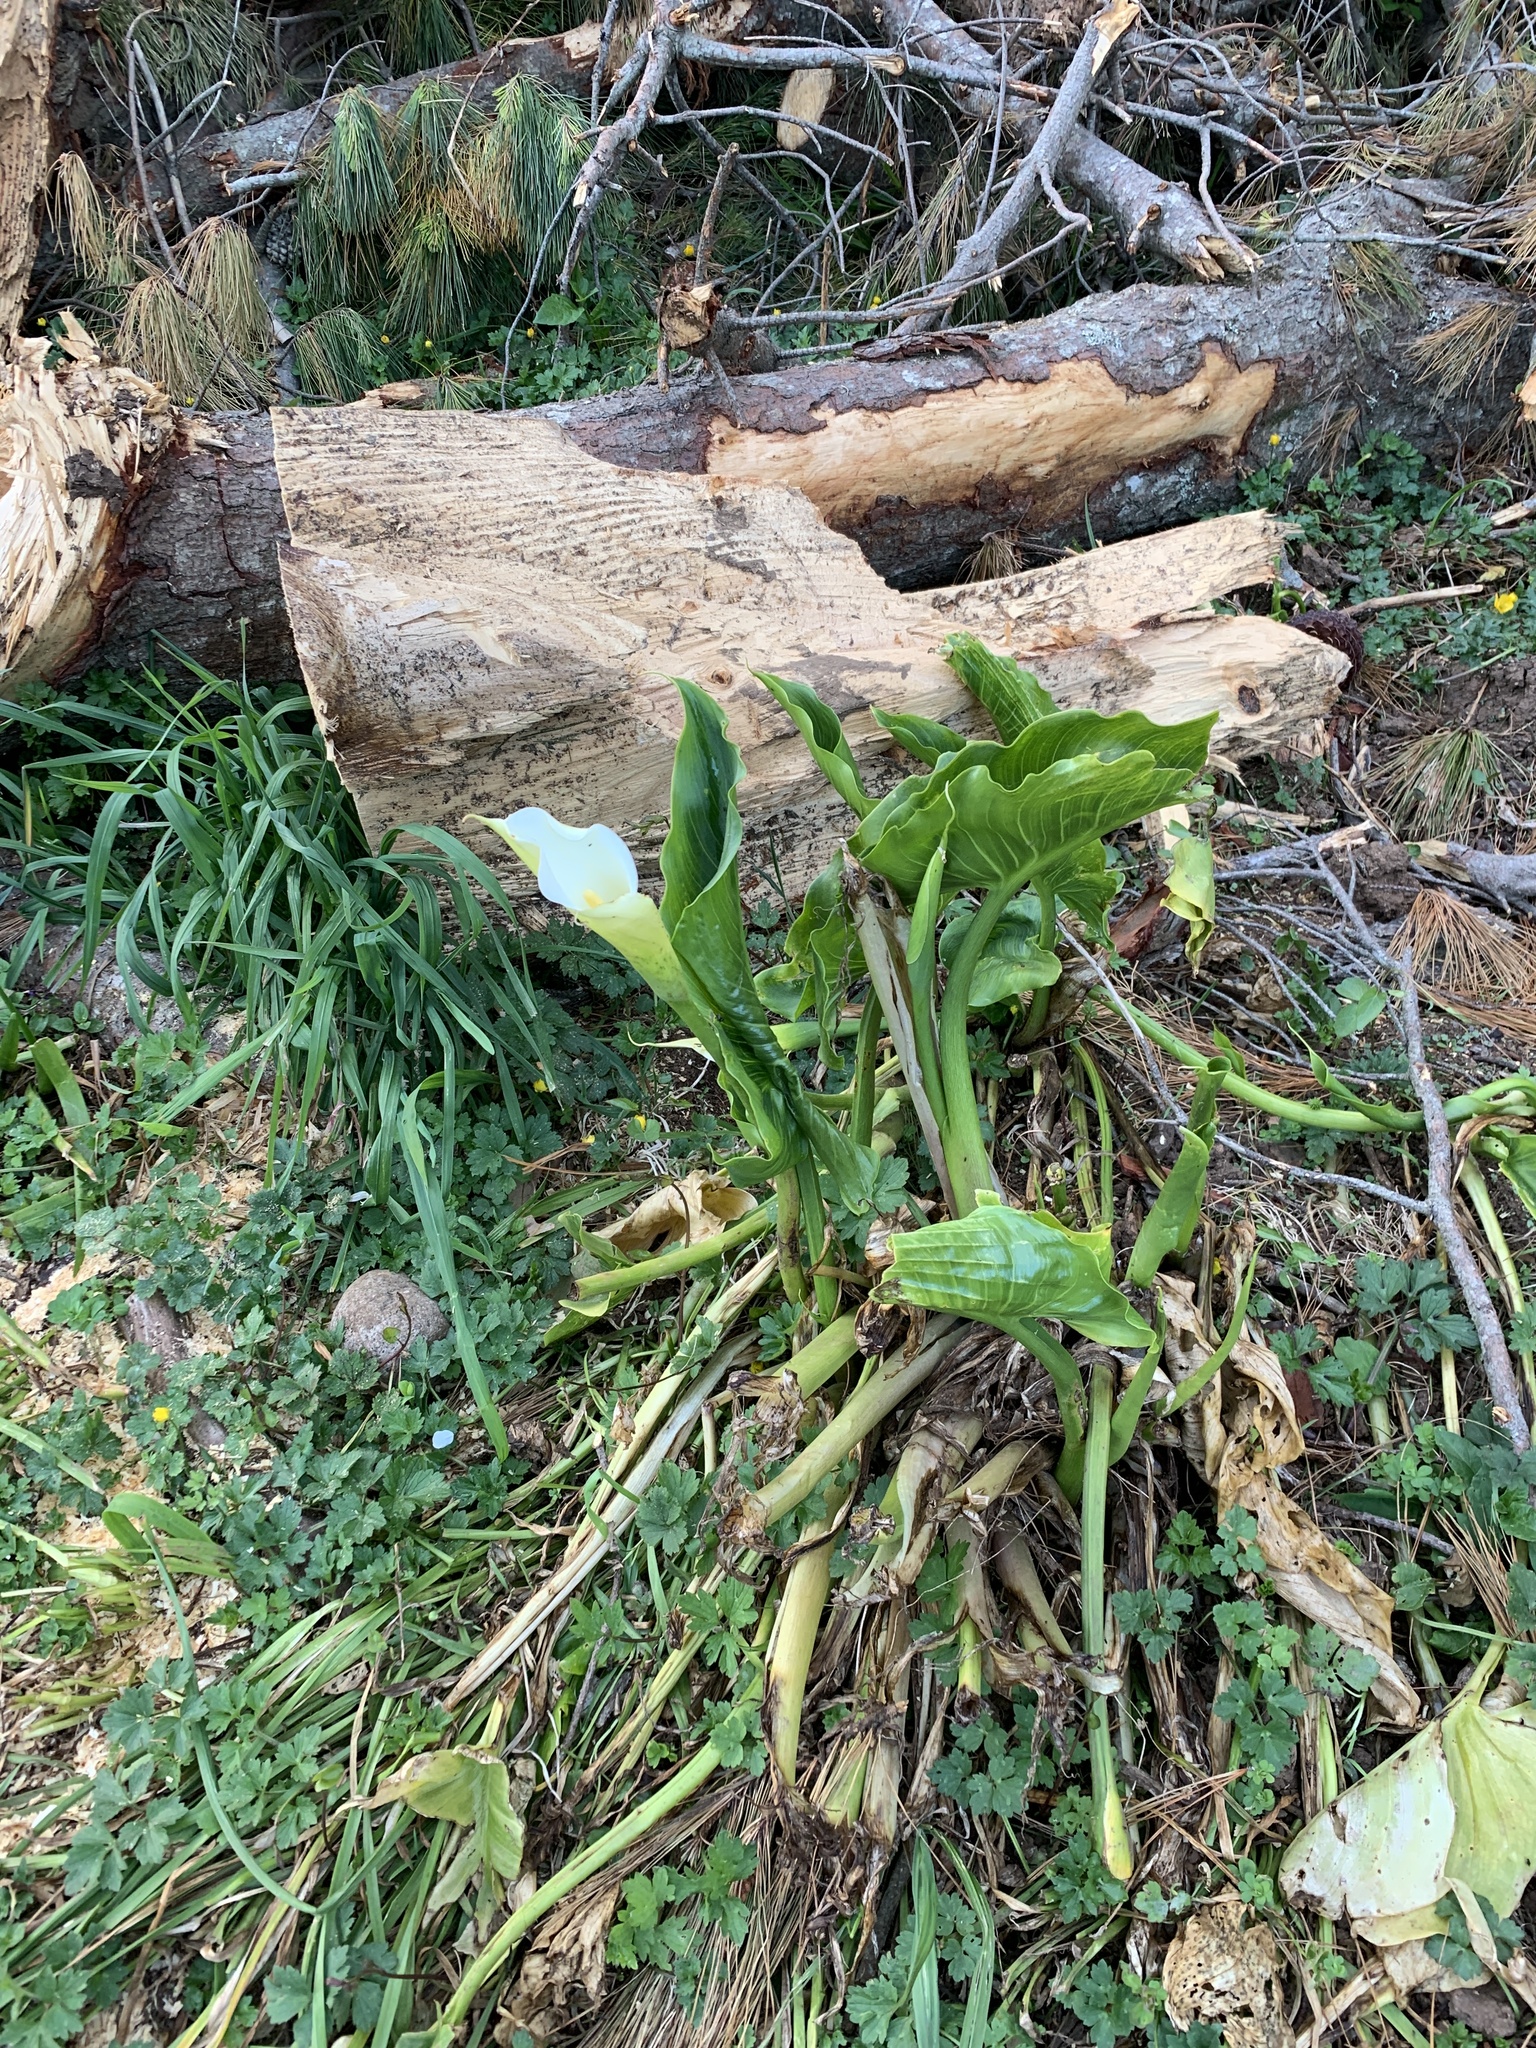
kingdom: Plantae
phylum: Tracheophyta
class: Liliopsida
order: Alismatales
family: Araceae
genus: Zantedeschia
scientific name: Zantedeschia aethiopica
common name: Altar-lily
